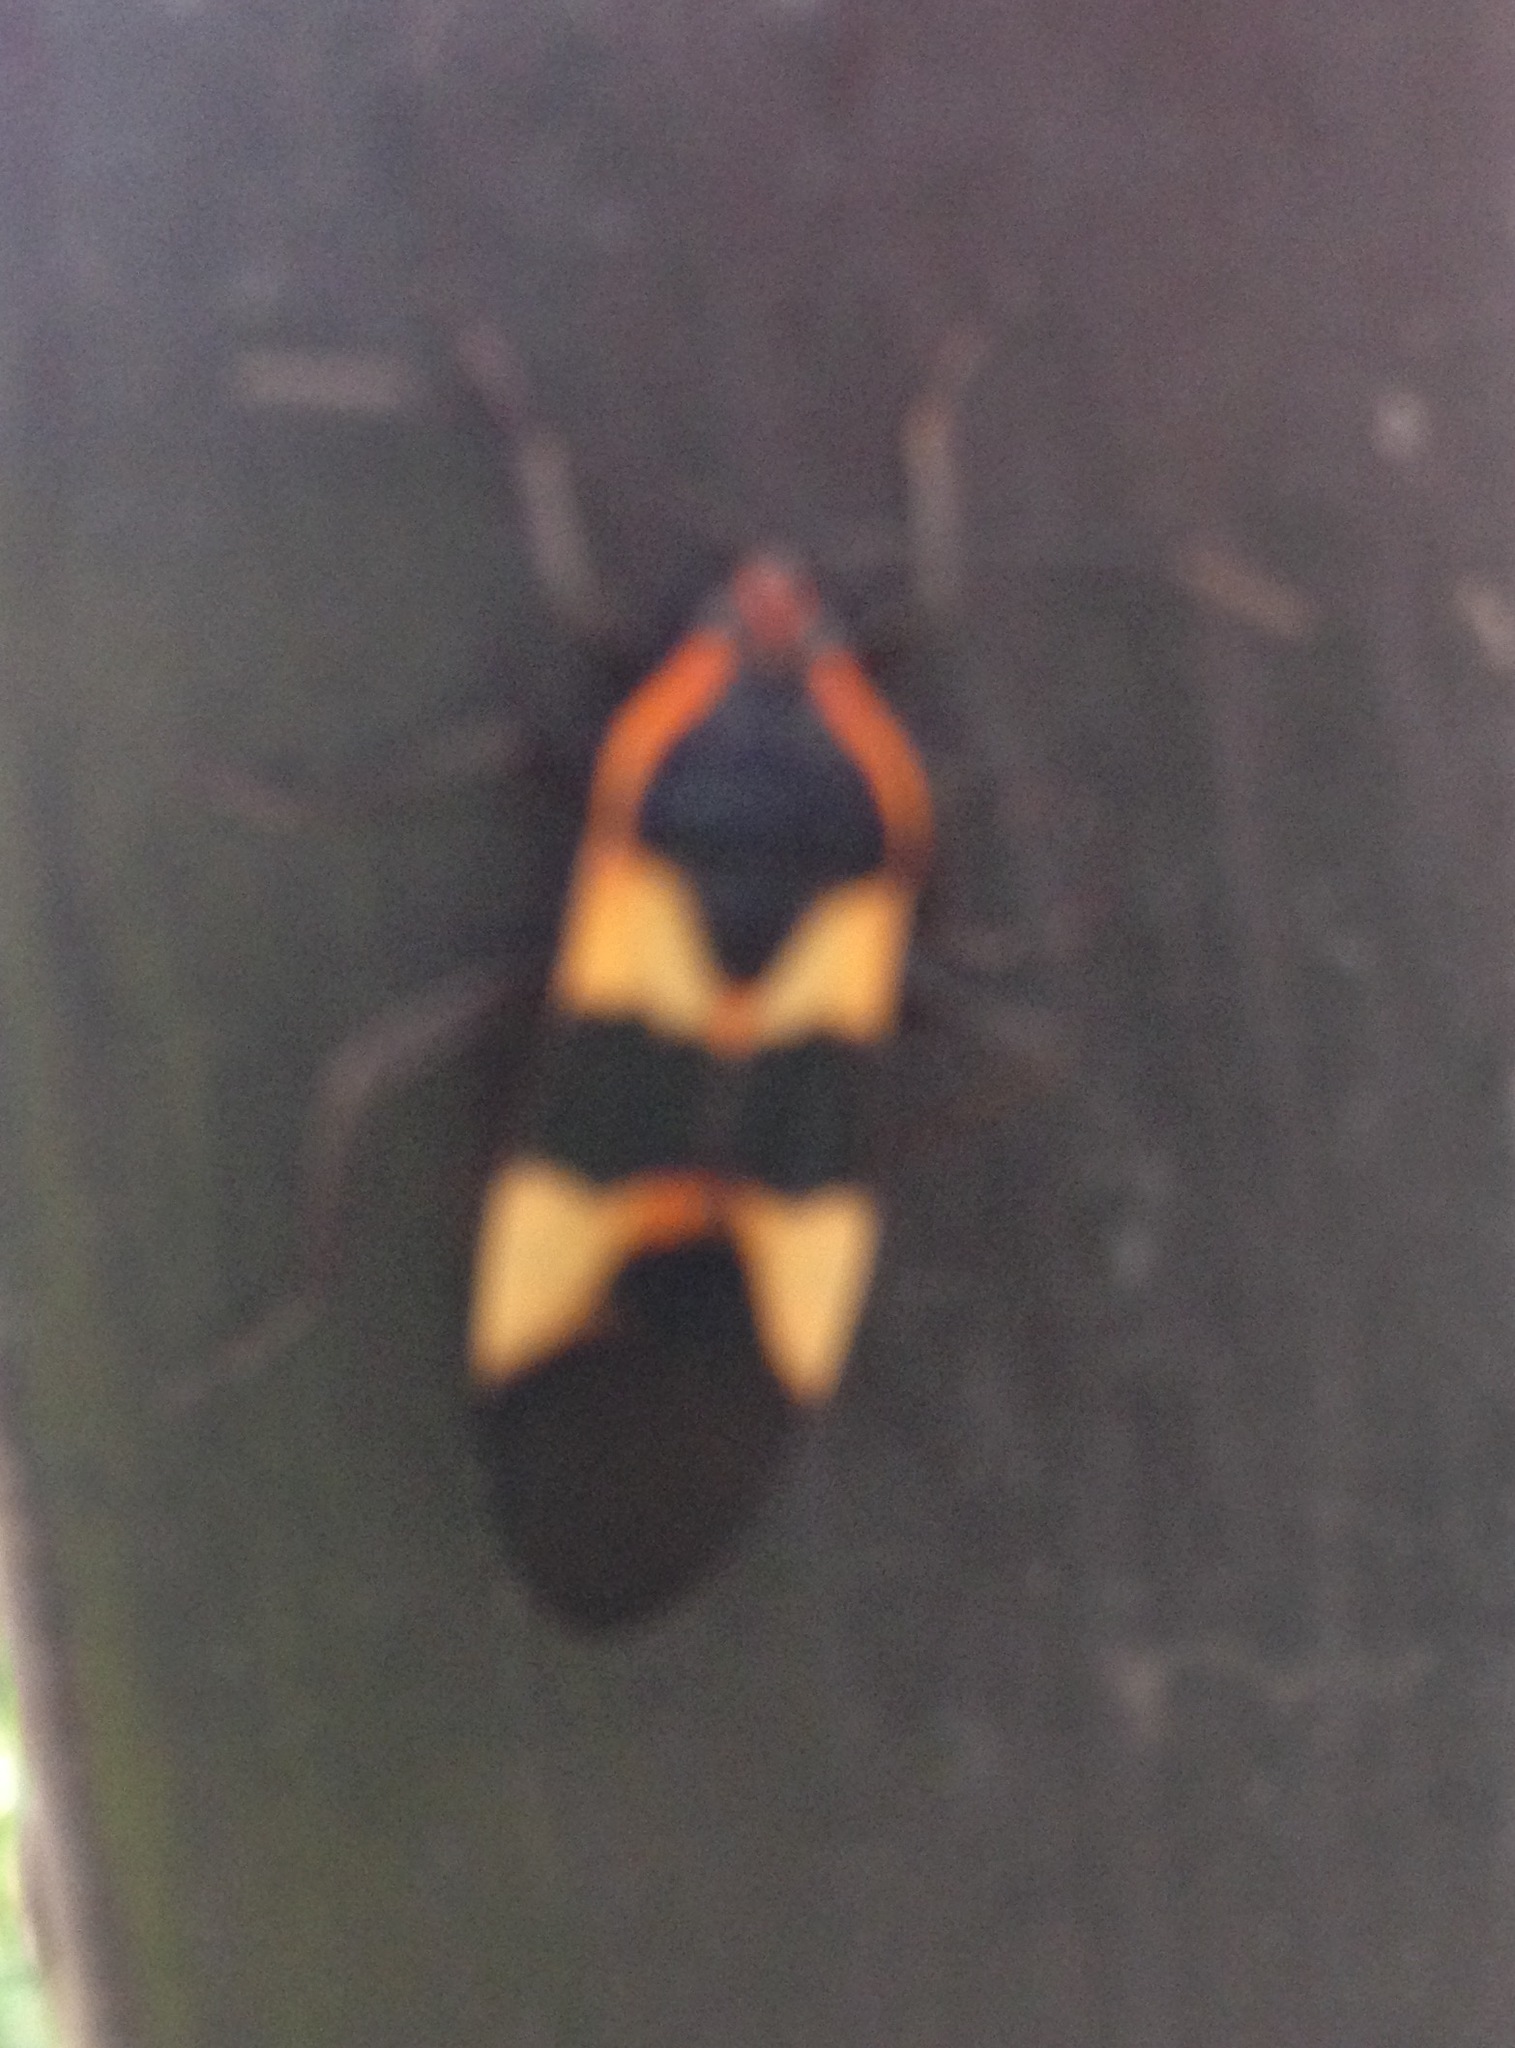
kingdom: Animalia
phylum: Arthropoda
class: Insecta
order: Hemiptera
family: Lygaeidae
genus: Oncopeltus
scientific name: Oncopeltus fasciatus
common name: Large milkweed bug
